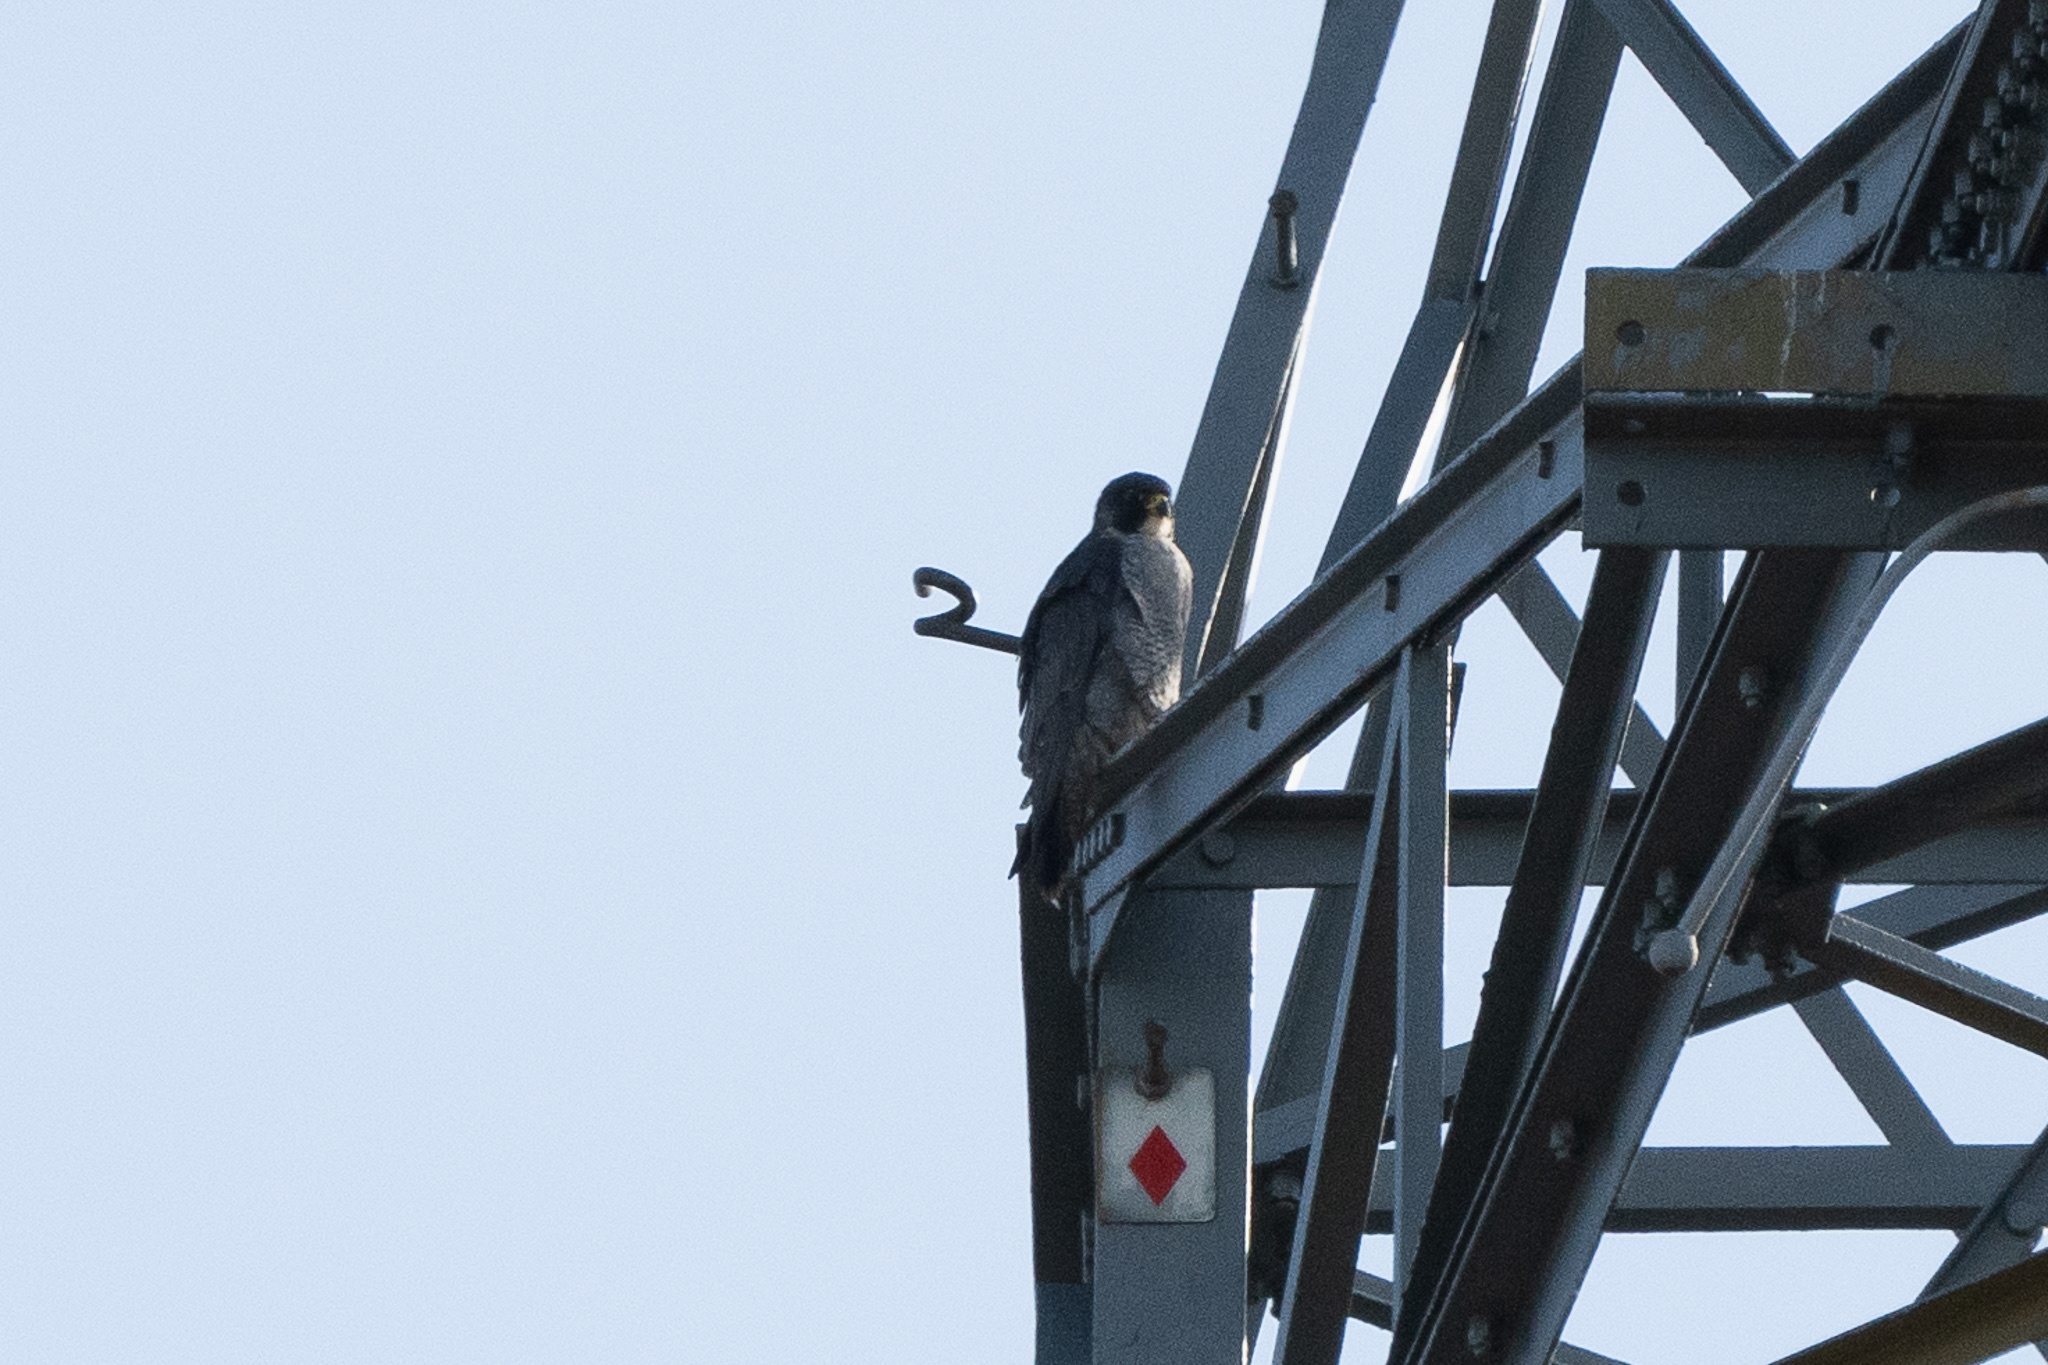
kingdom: Animalia
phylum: Chordata
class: Aves
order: Falconiformes
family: Falconidae
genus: Falco
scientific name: Falco peregrinus
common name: Peregrine falcon
